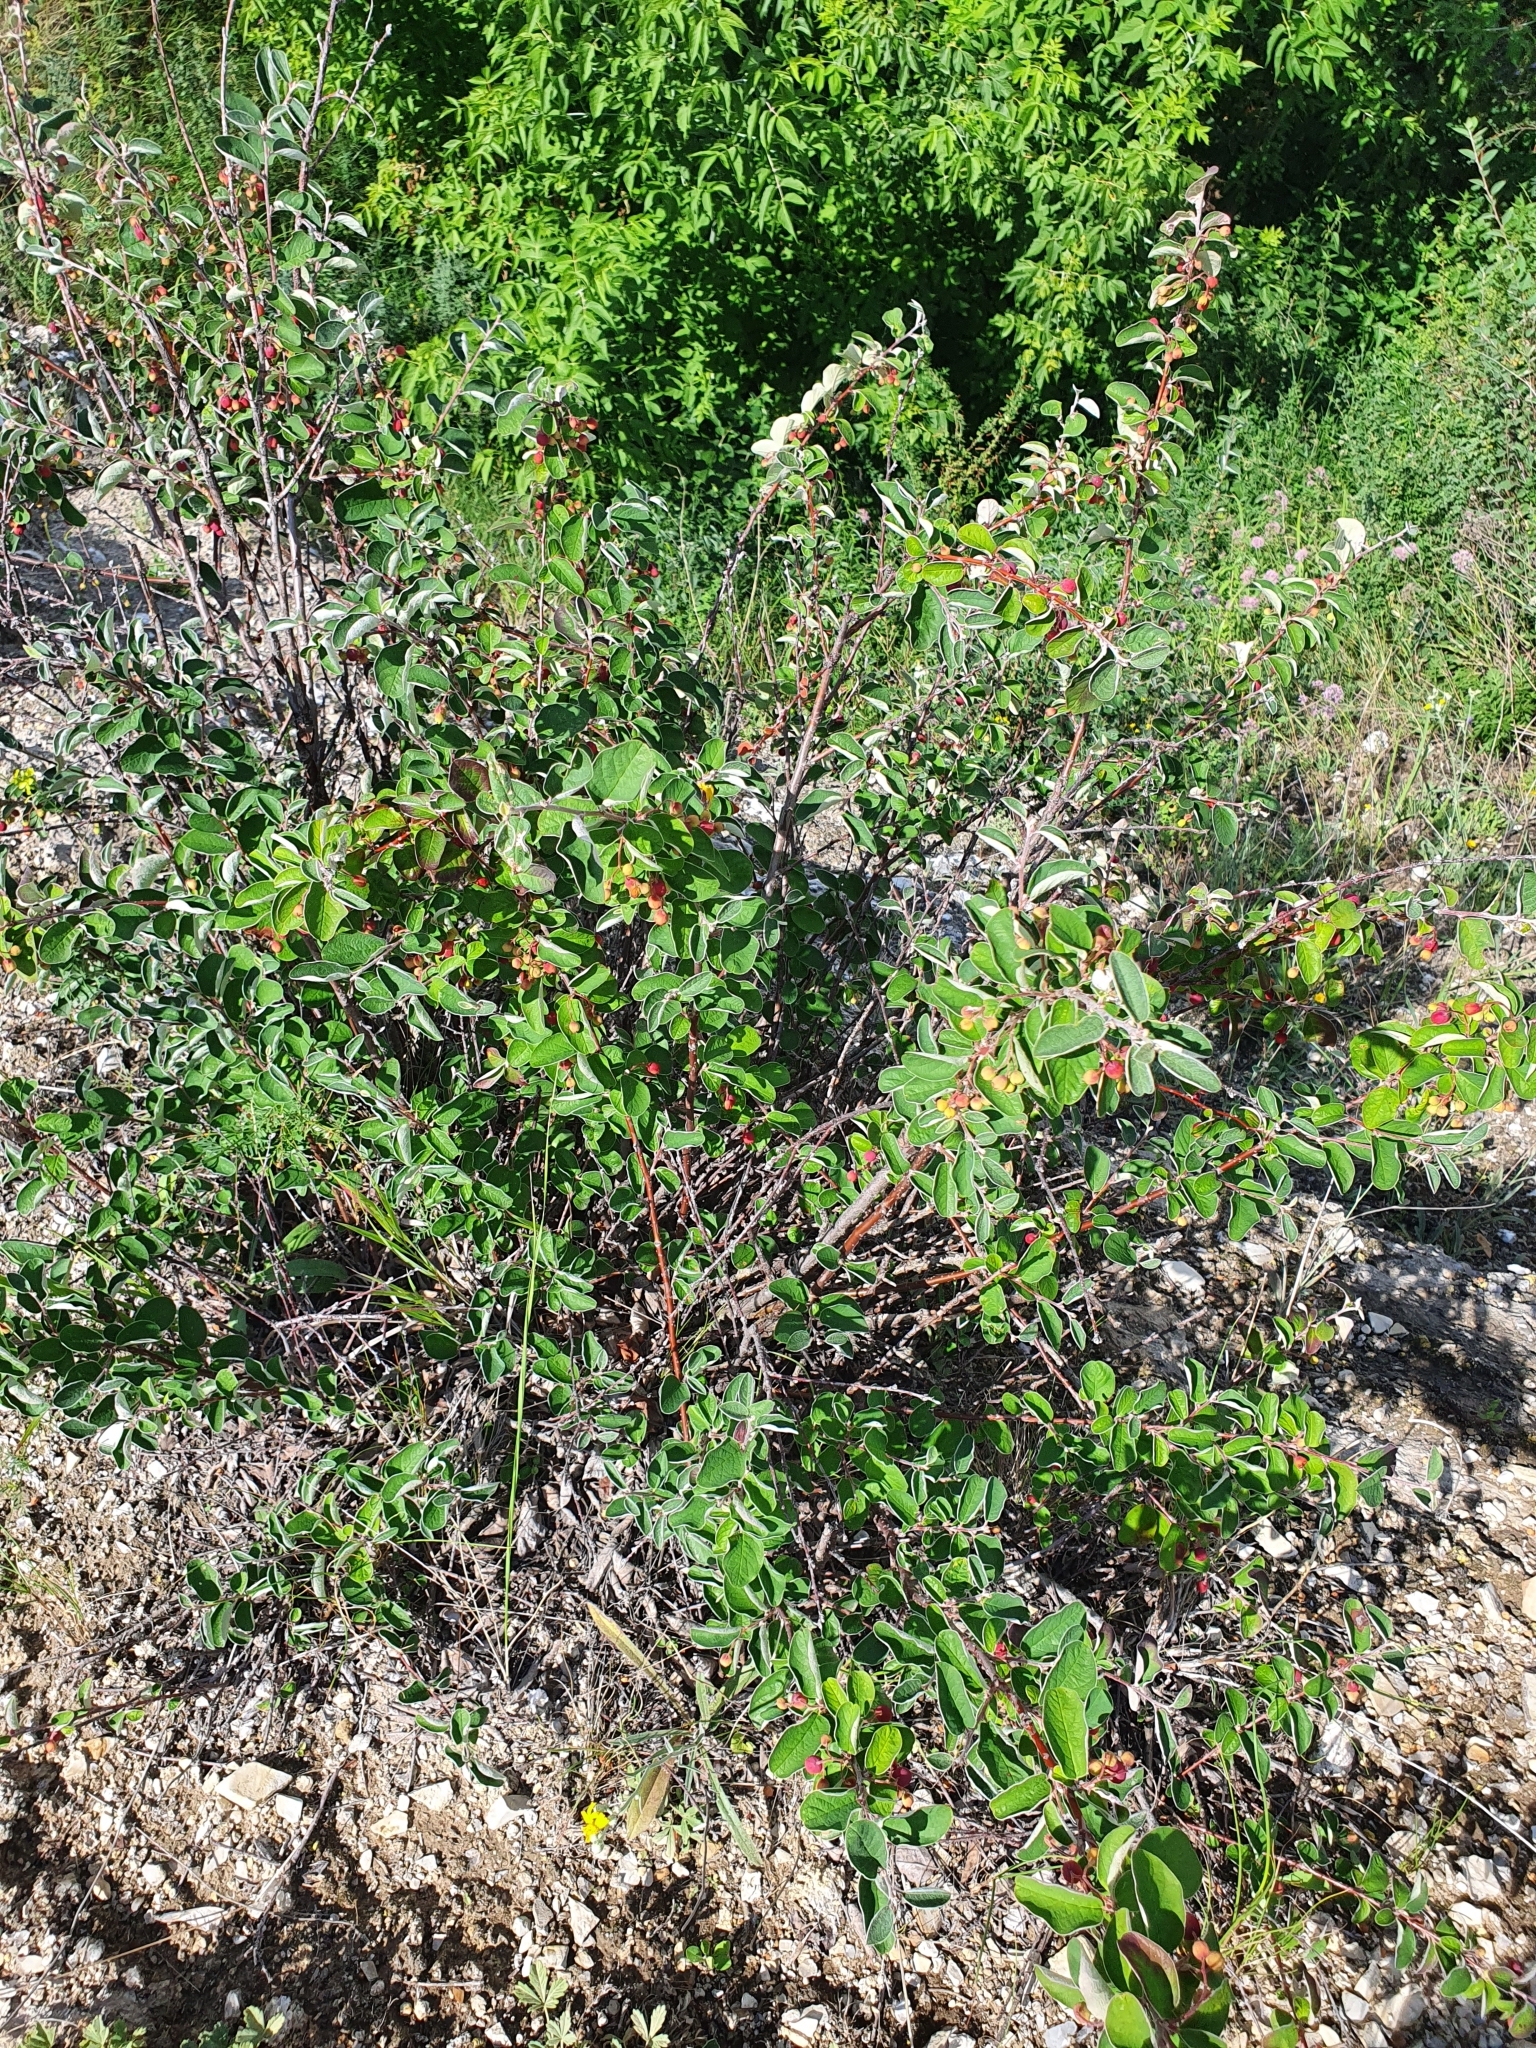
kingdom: Plantae
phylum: Tracheophyta
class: Magnoliopsida
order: Rosales
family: Rosaceae
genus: Cotoneaster
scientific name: Cotoneaster melanocarpus
